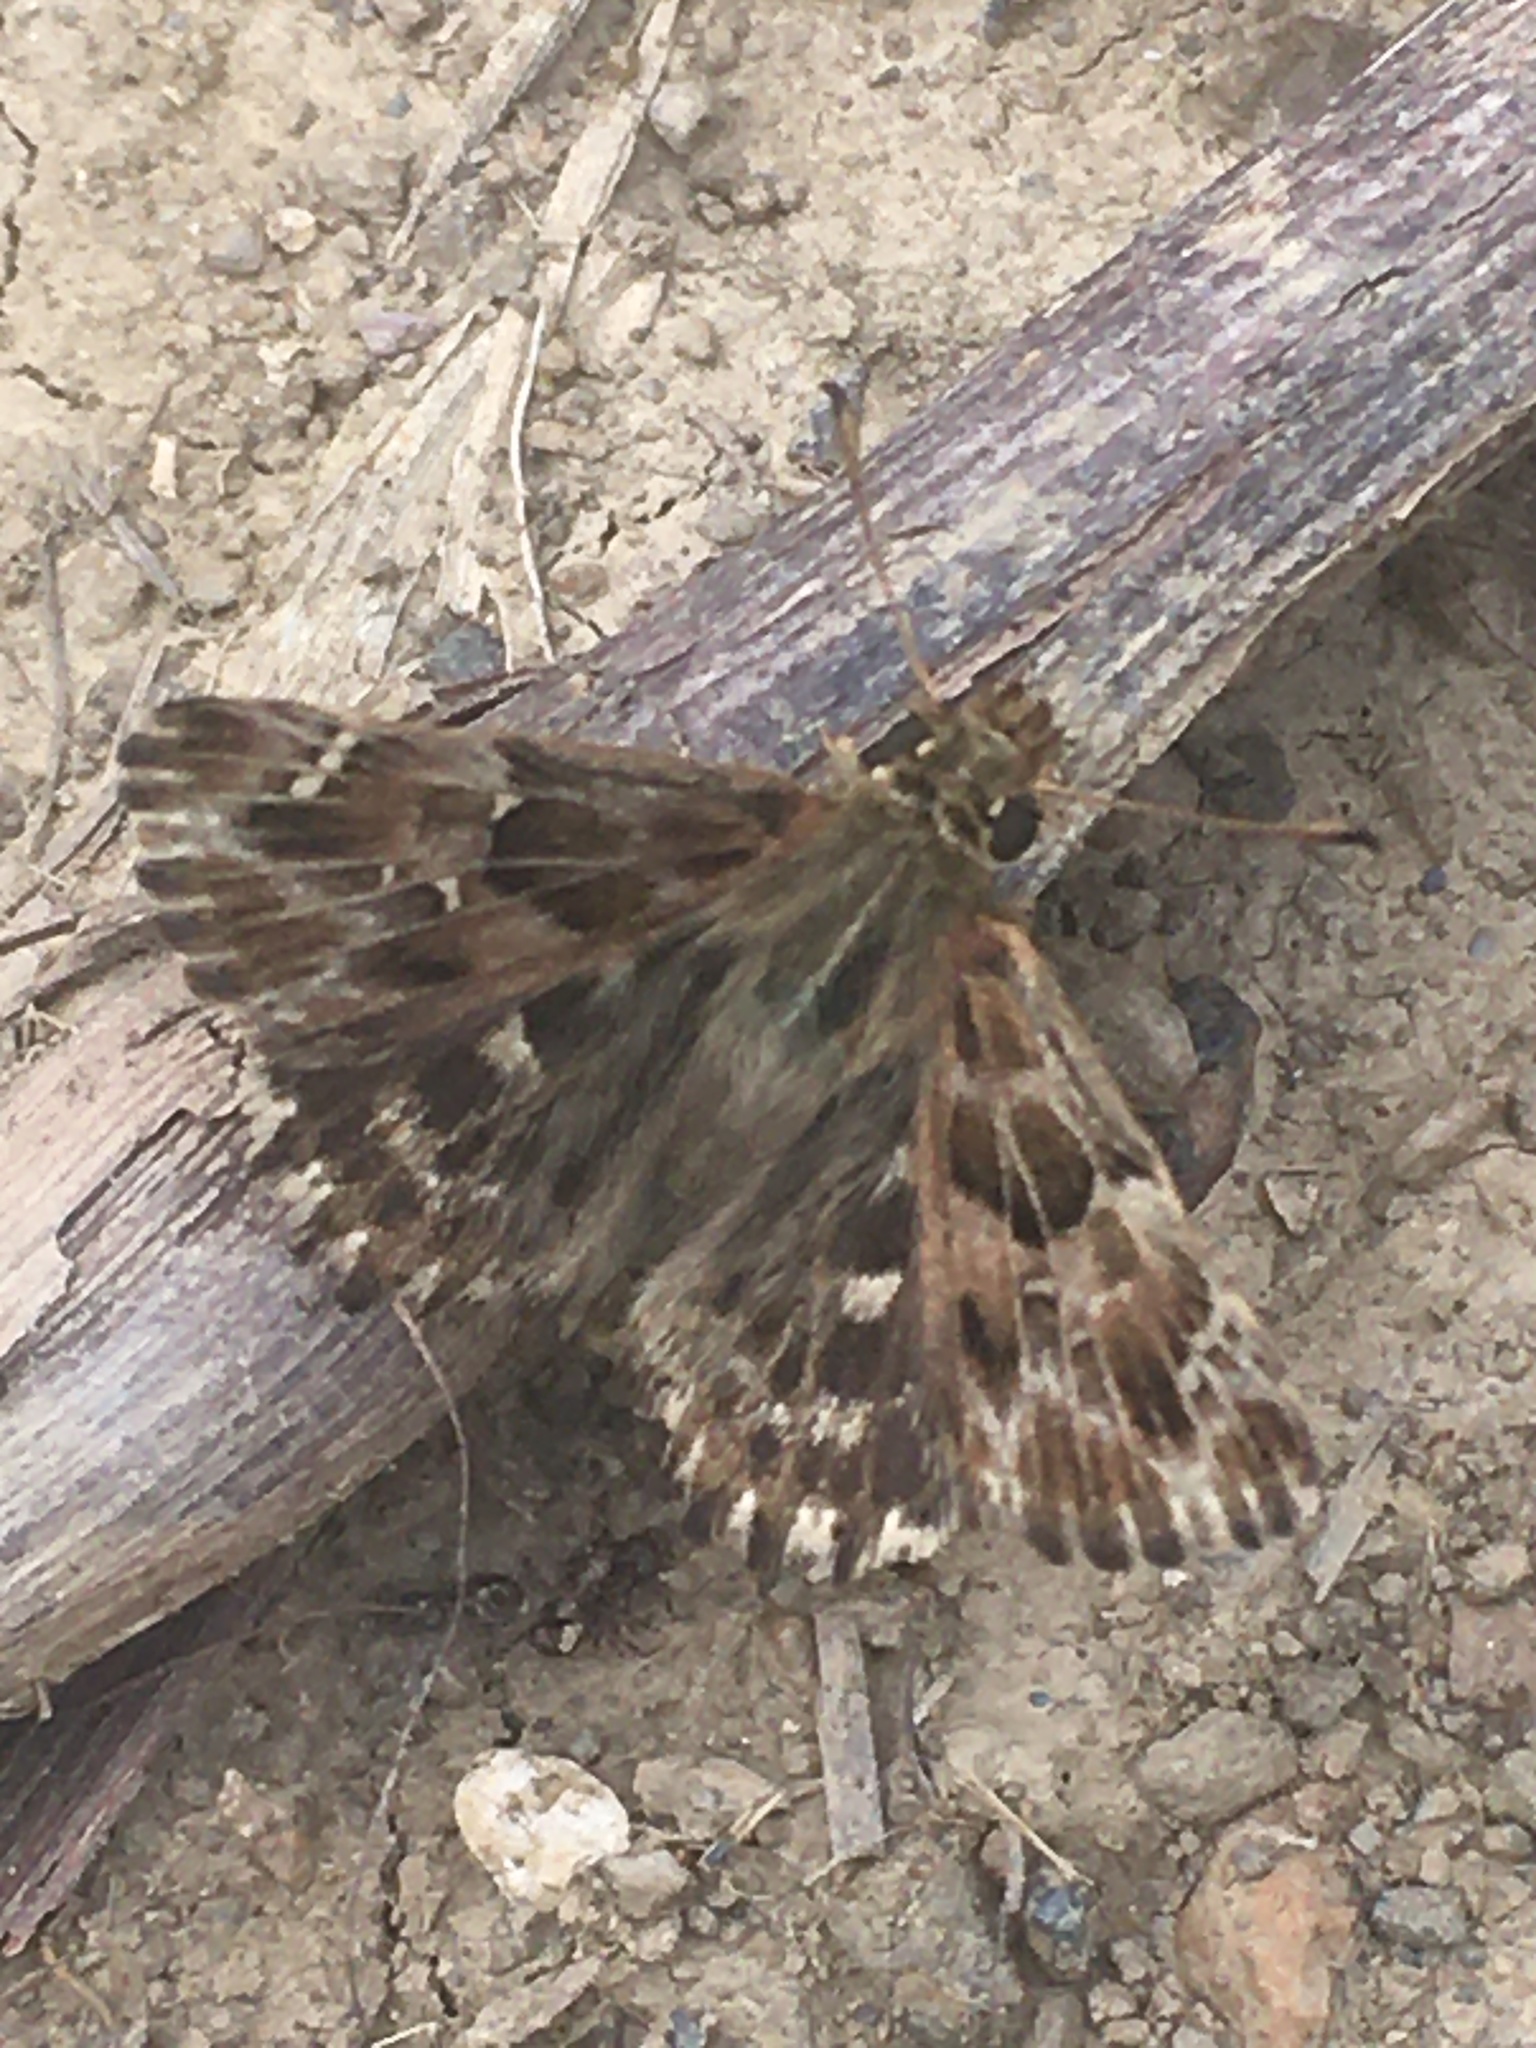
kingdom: Animalia
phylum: Arthropoda
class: Insecta
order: Lepidoptera
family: Hesperiidae
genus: Carcharodus
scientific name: Carcharodus alceae
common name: Mallow skipper
